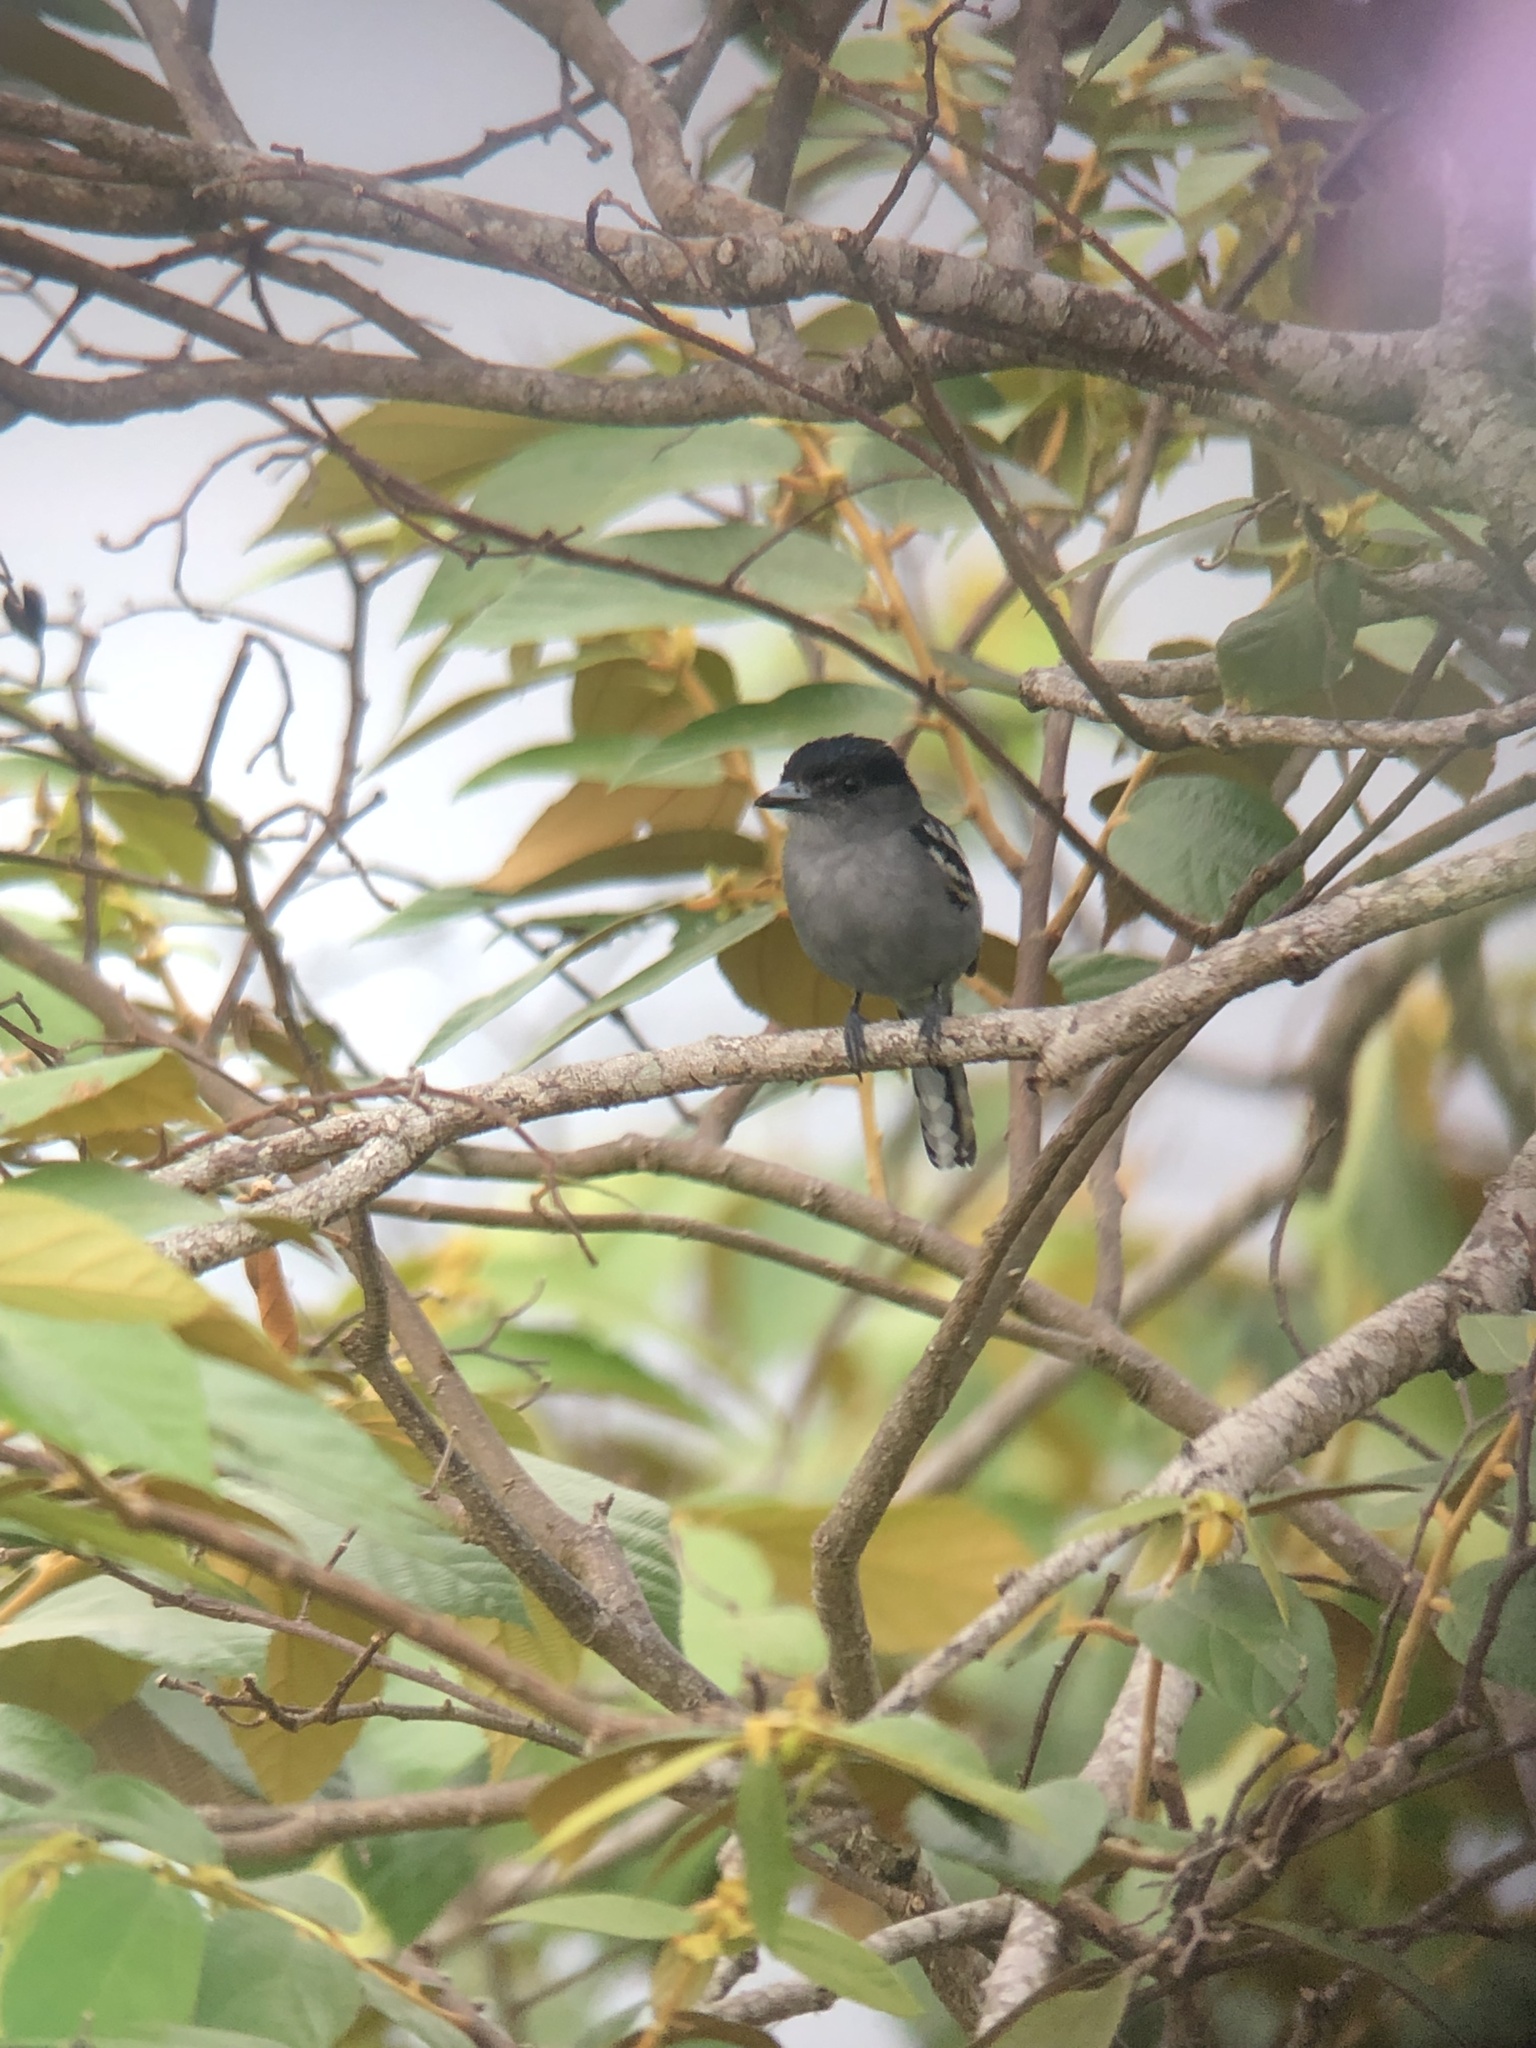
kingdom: Animalia
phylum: Chordata
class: Aves
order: Passeriformes
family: Cotingidae
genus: Pachyramphus
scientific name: Pachyramphus polychopterus
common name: White-winged becard
